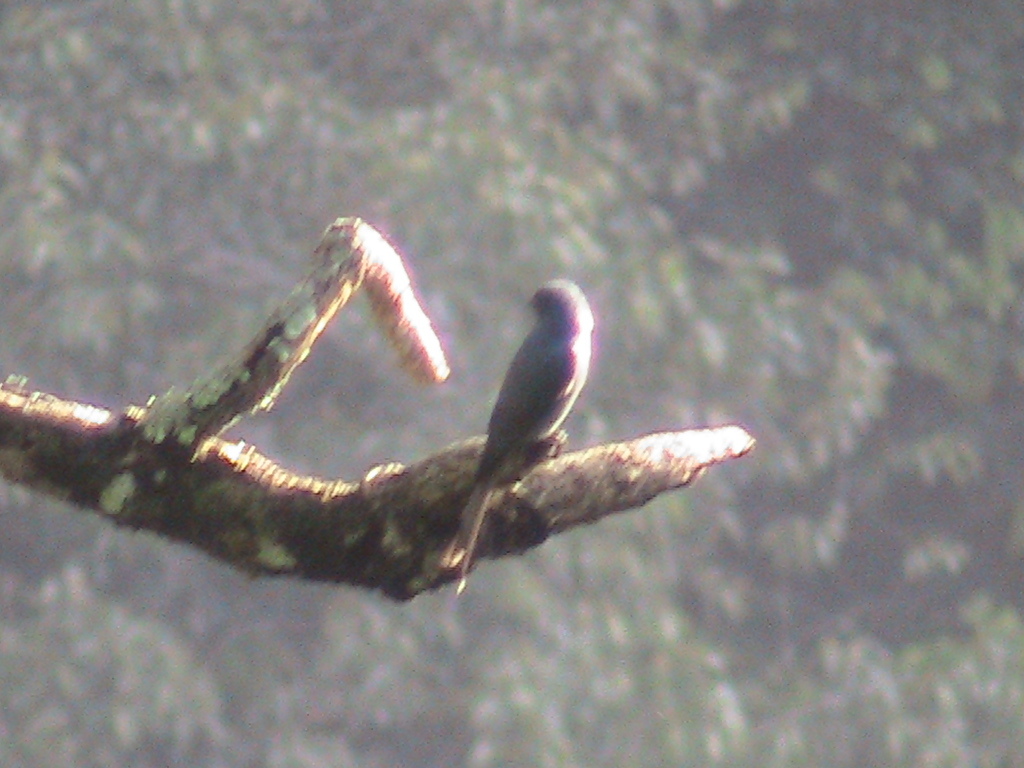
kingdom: Animalia
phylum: Chordata
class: Aves
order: Passeriformes
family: Dicruridae
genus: Dicrurus
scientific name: Dicrurus leucophaeus
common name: Ashy drongo
